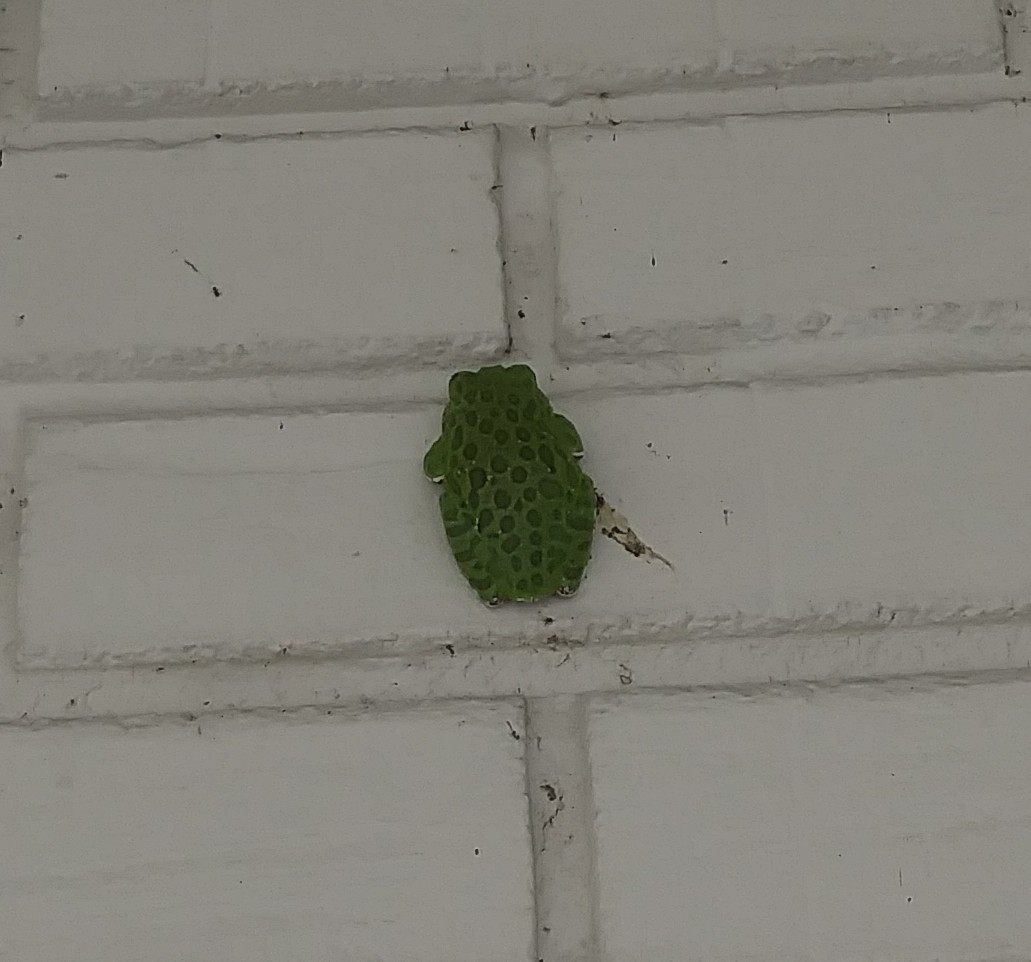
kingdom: Animalia
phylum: Chordata
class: Amphibia
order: Anura
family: Hylidae
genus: Dryophytes
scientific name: Dryophytes gratiosus
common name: Barking treefrog
